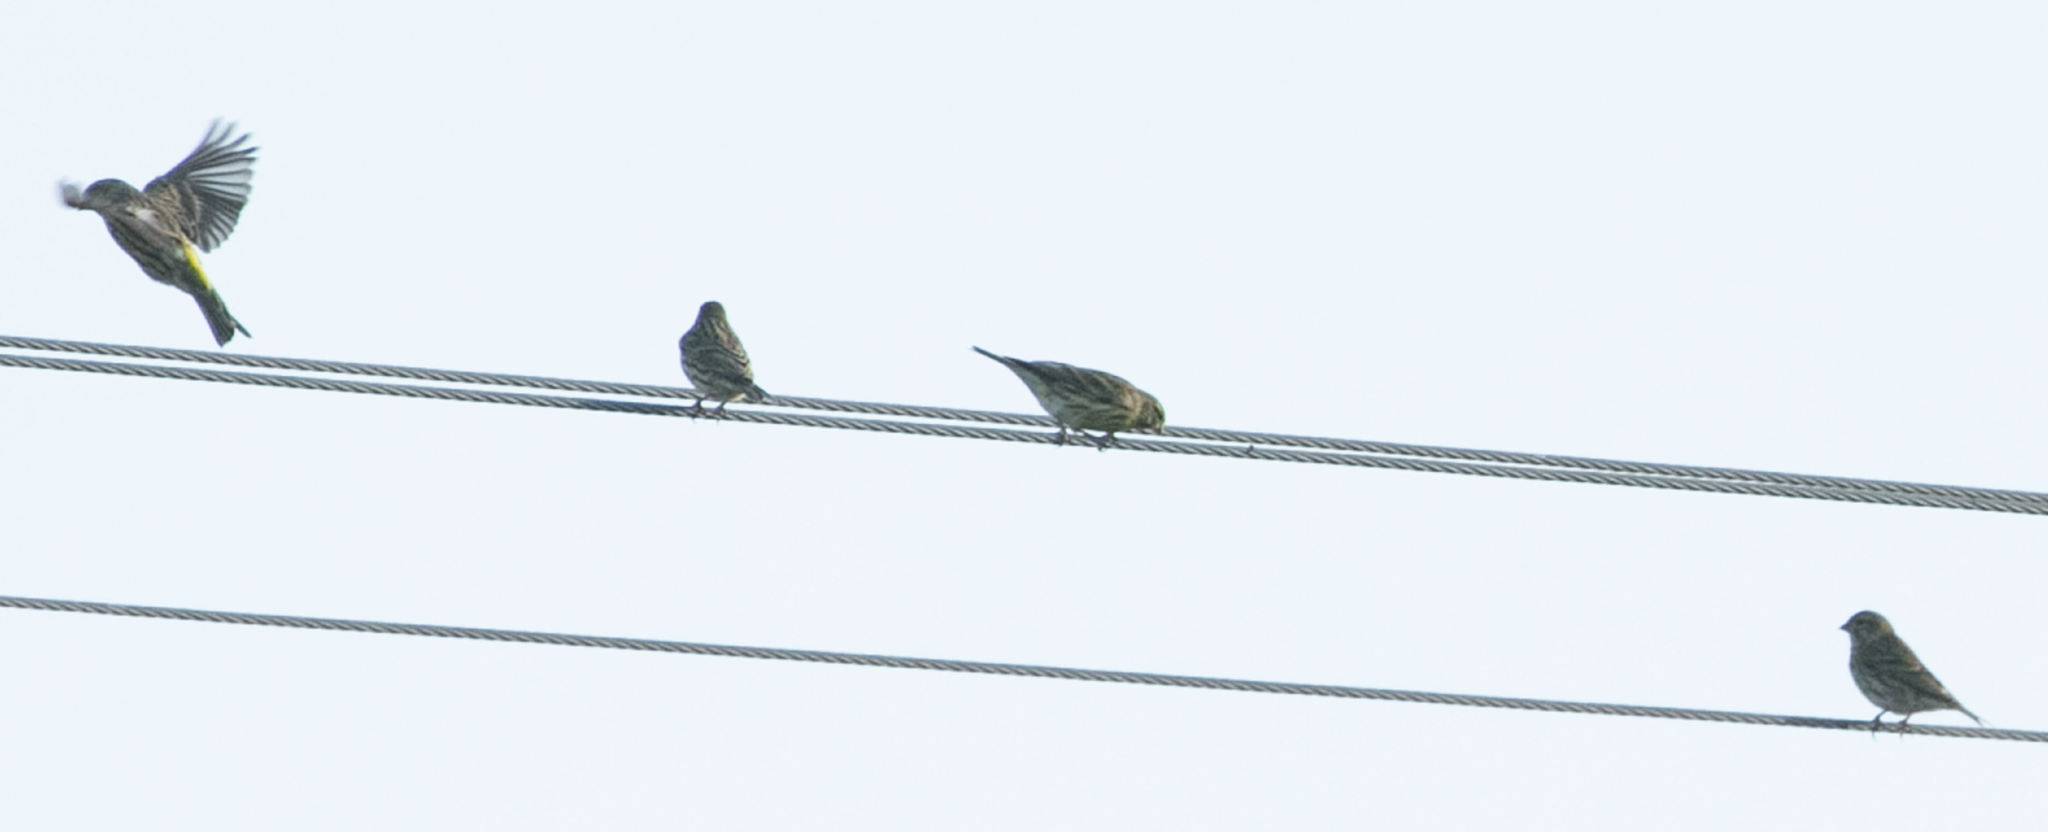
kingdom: Animalia
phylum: Chordata
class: Aves
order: Passeriformes
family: Fringillidae
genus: Serinus
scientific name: Serinus serinus
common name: European serin
